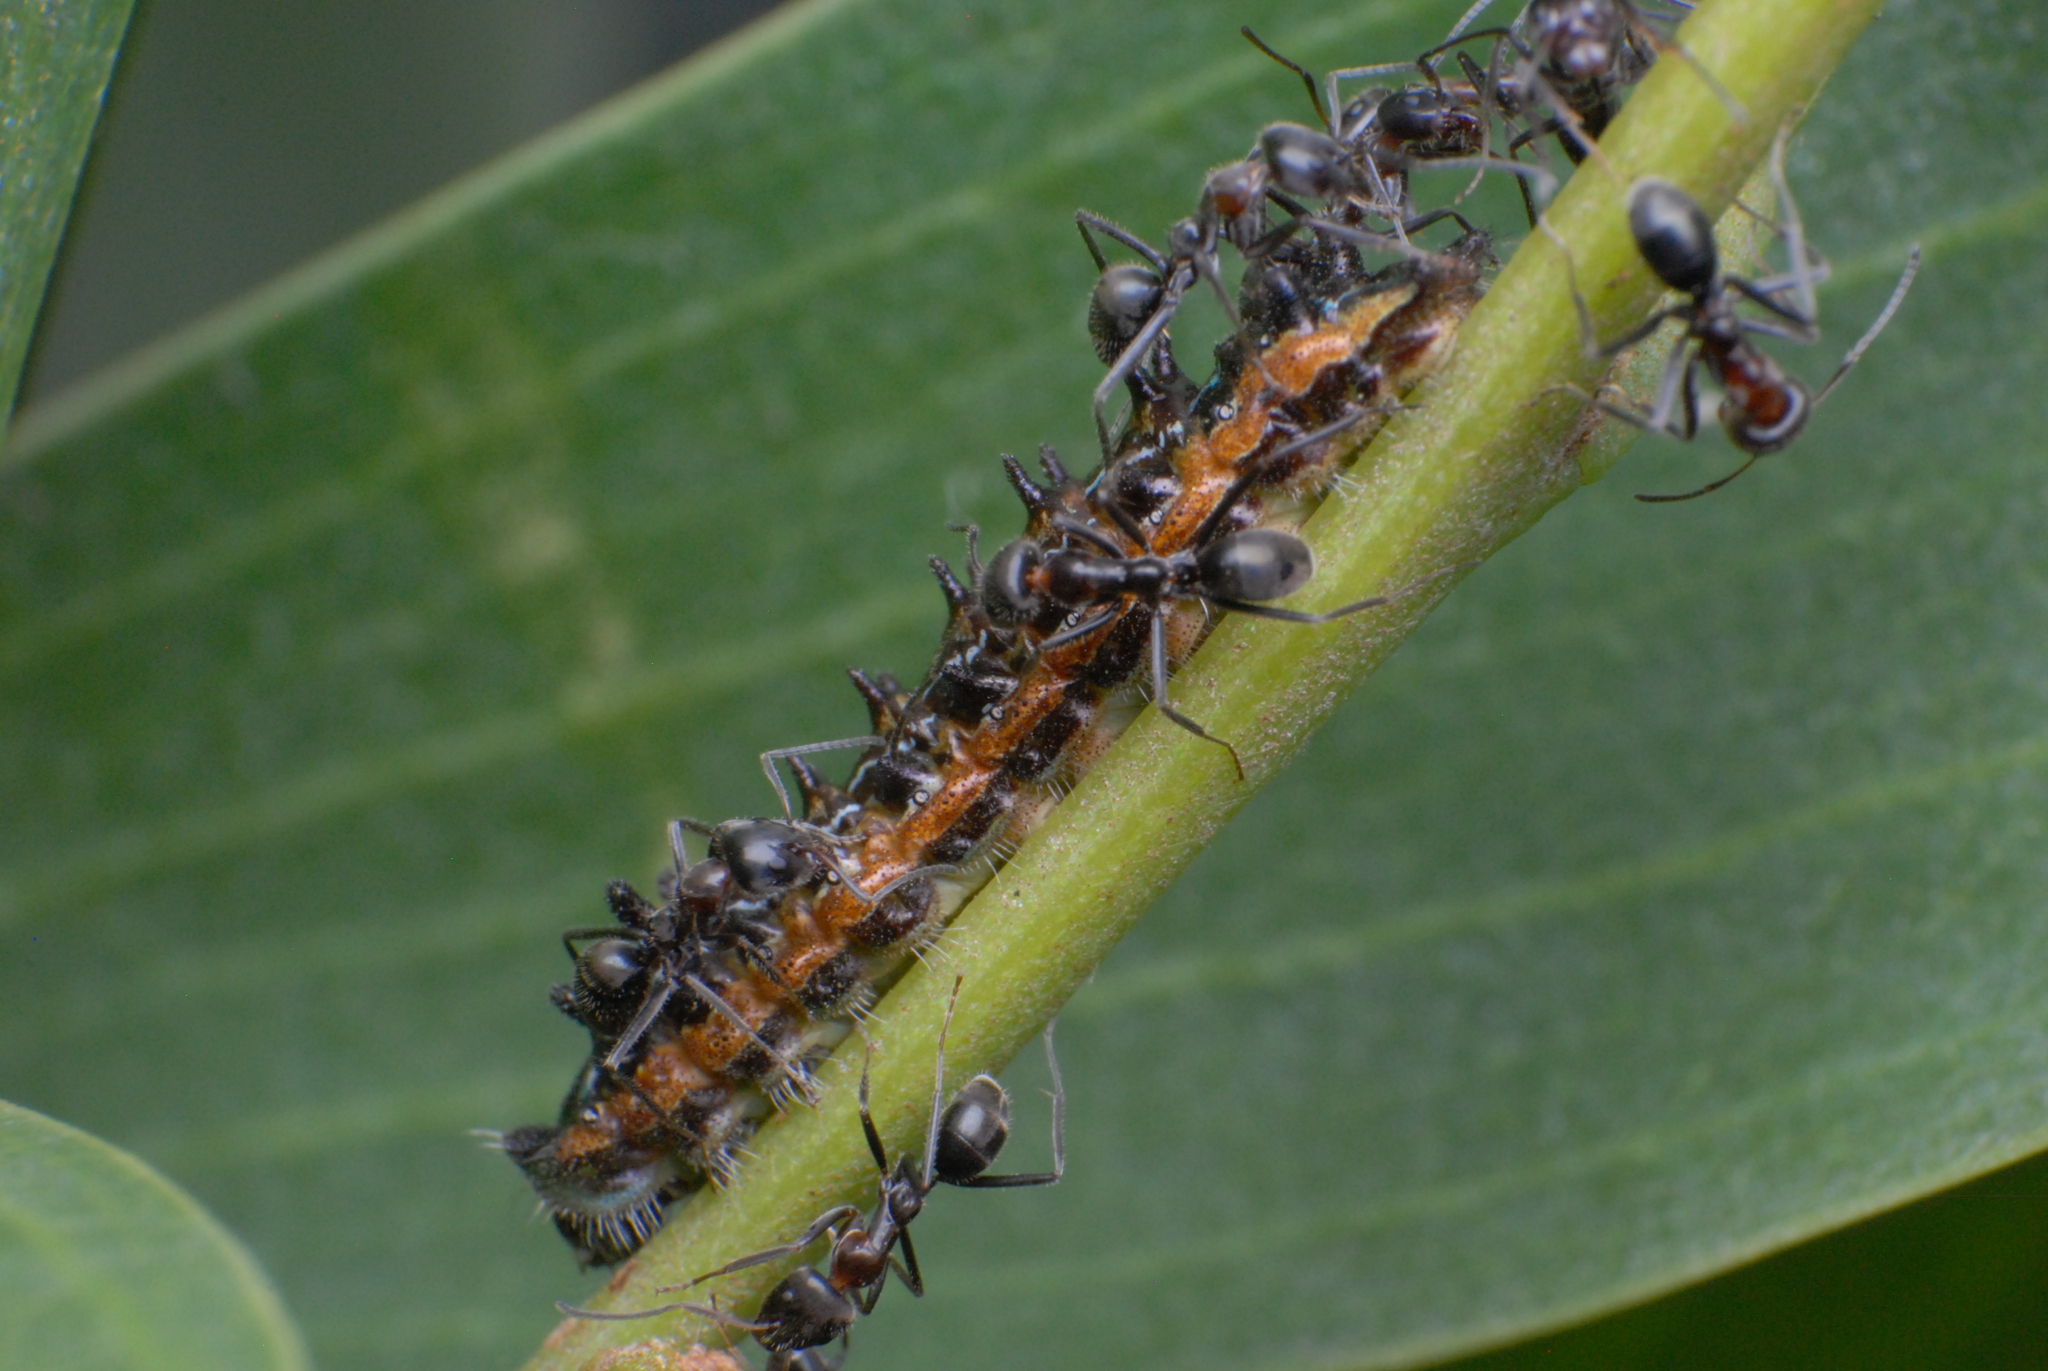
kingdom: Animalia
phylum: Arthropoda
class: Insecta
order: Lepidoptera
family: Lycaenidae
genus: Jalmenus
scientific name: Jalmenus evagoras
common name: Common imperial blue
